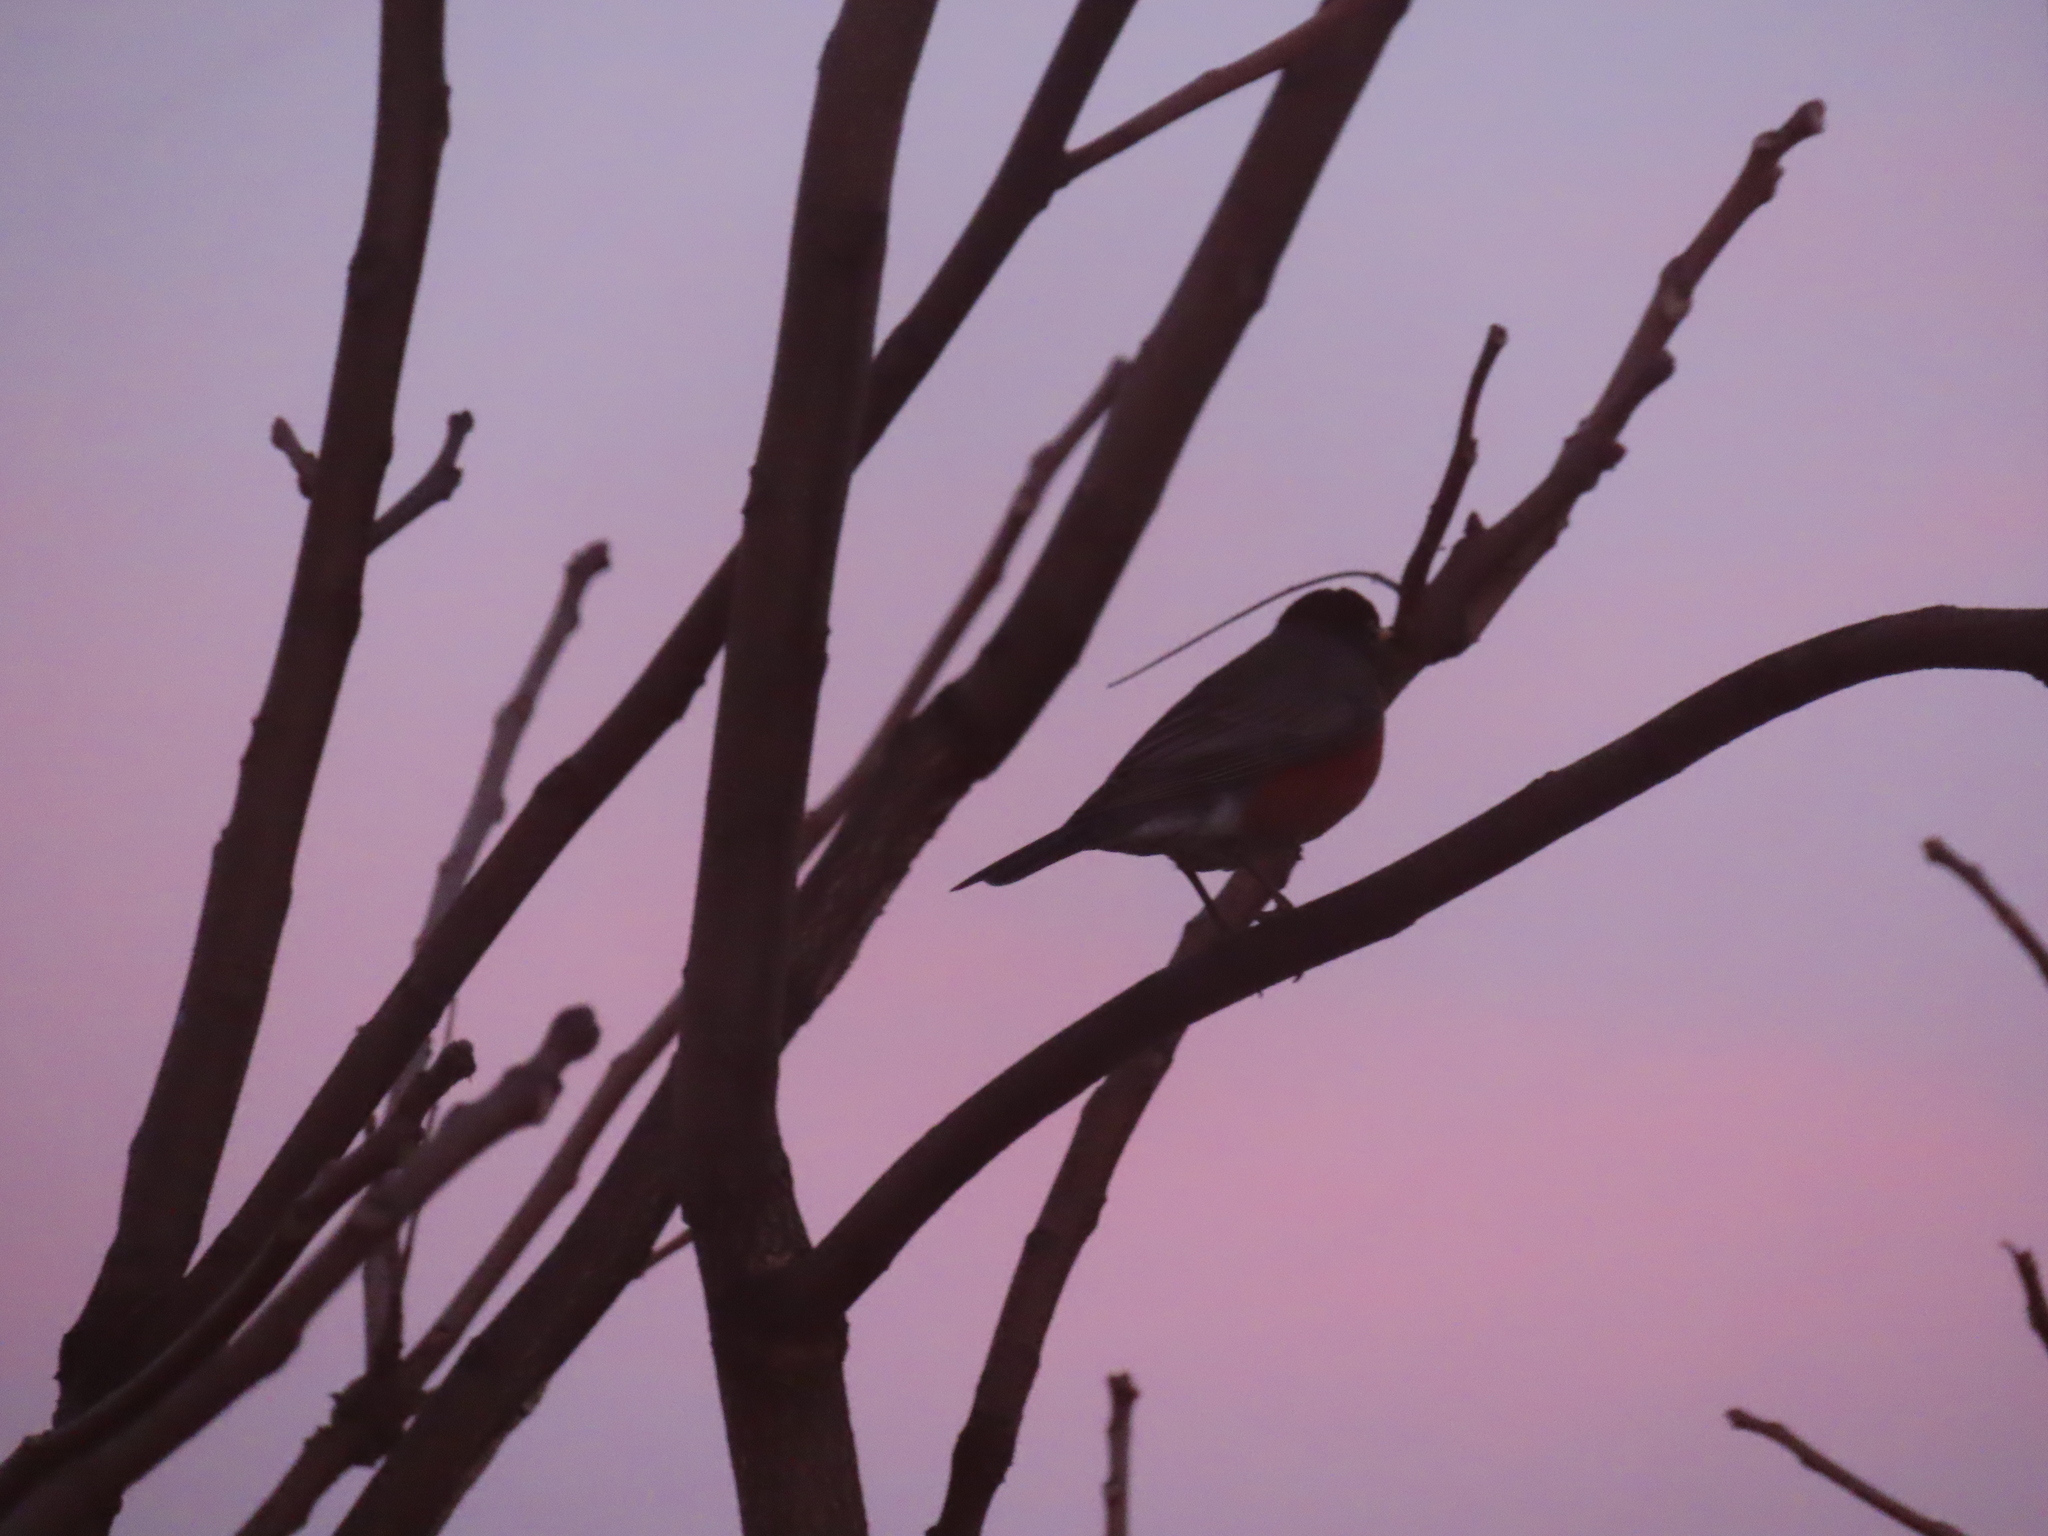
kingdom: Animalia
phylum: Chordata
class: Aves
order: Passeriformes
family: Turdidae
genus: Turdus
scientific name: Turdus migratorius
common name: American robin
